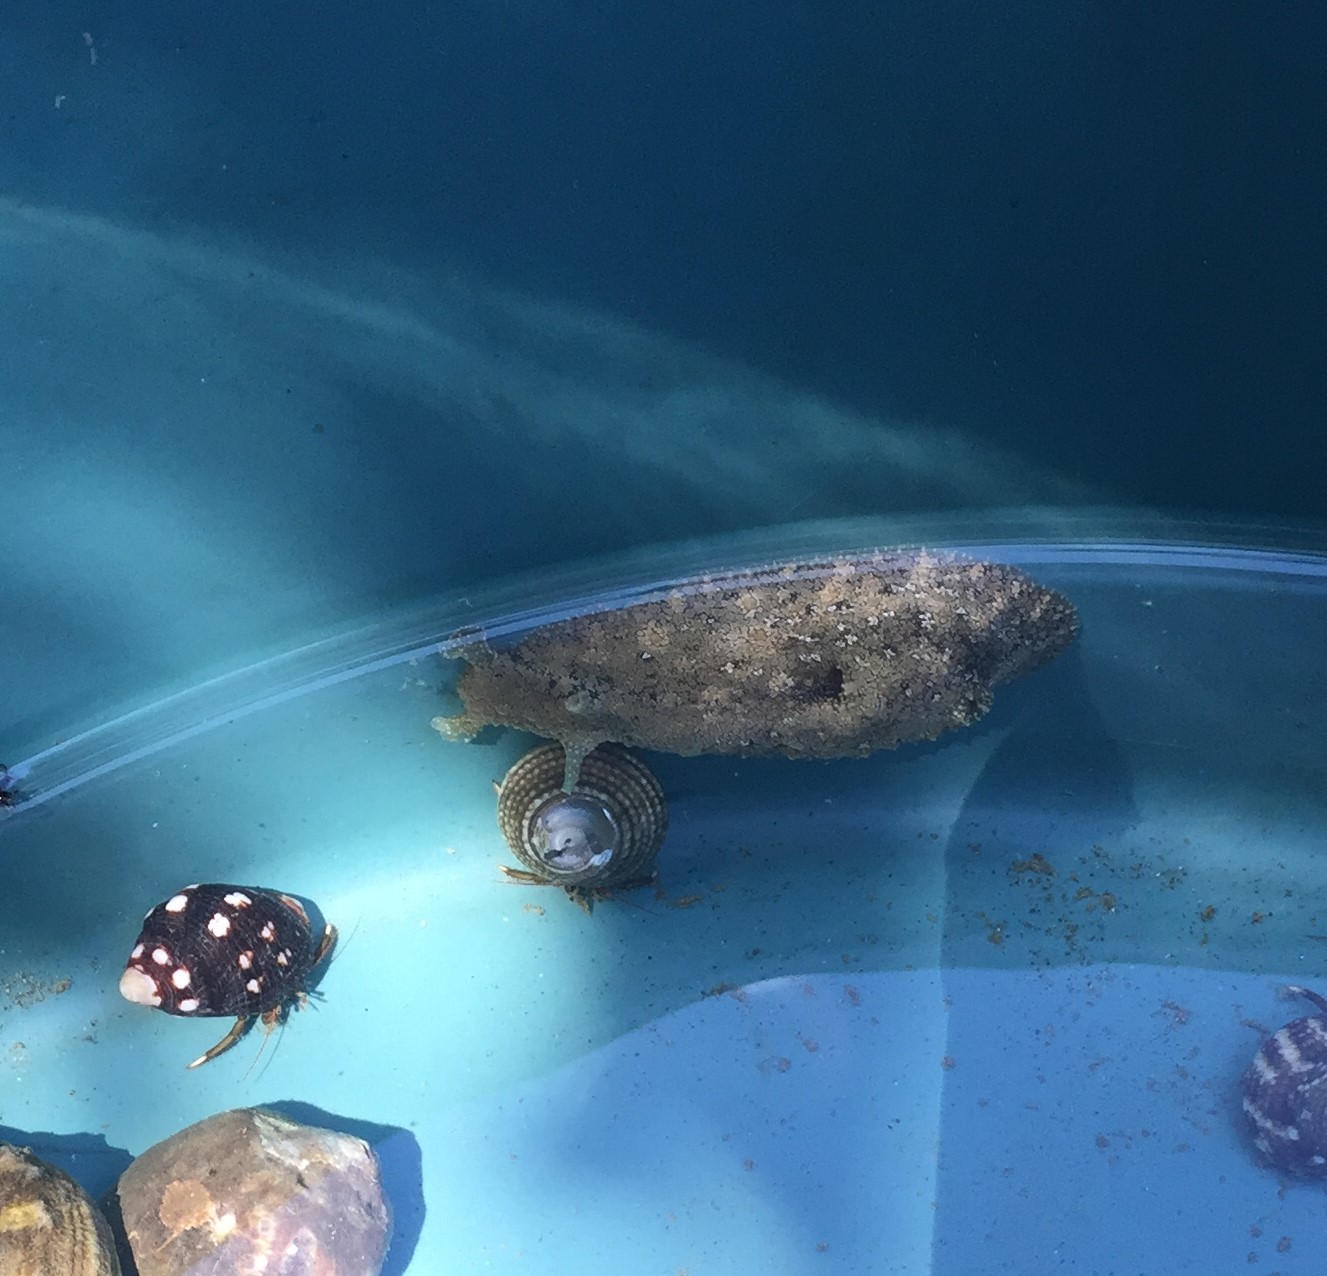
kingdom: Animalia
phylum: Mollusca
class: Gastropoda
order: Aplysiida
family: Aplysiidae
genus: Dolabrifera
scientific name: Dolabrifera nicaraguana
